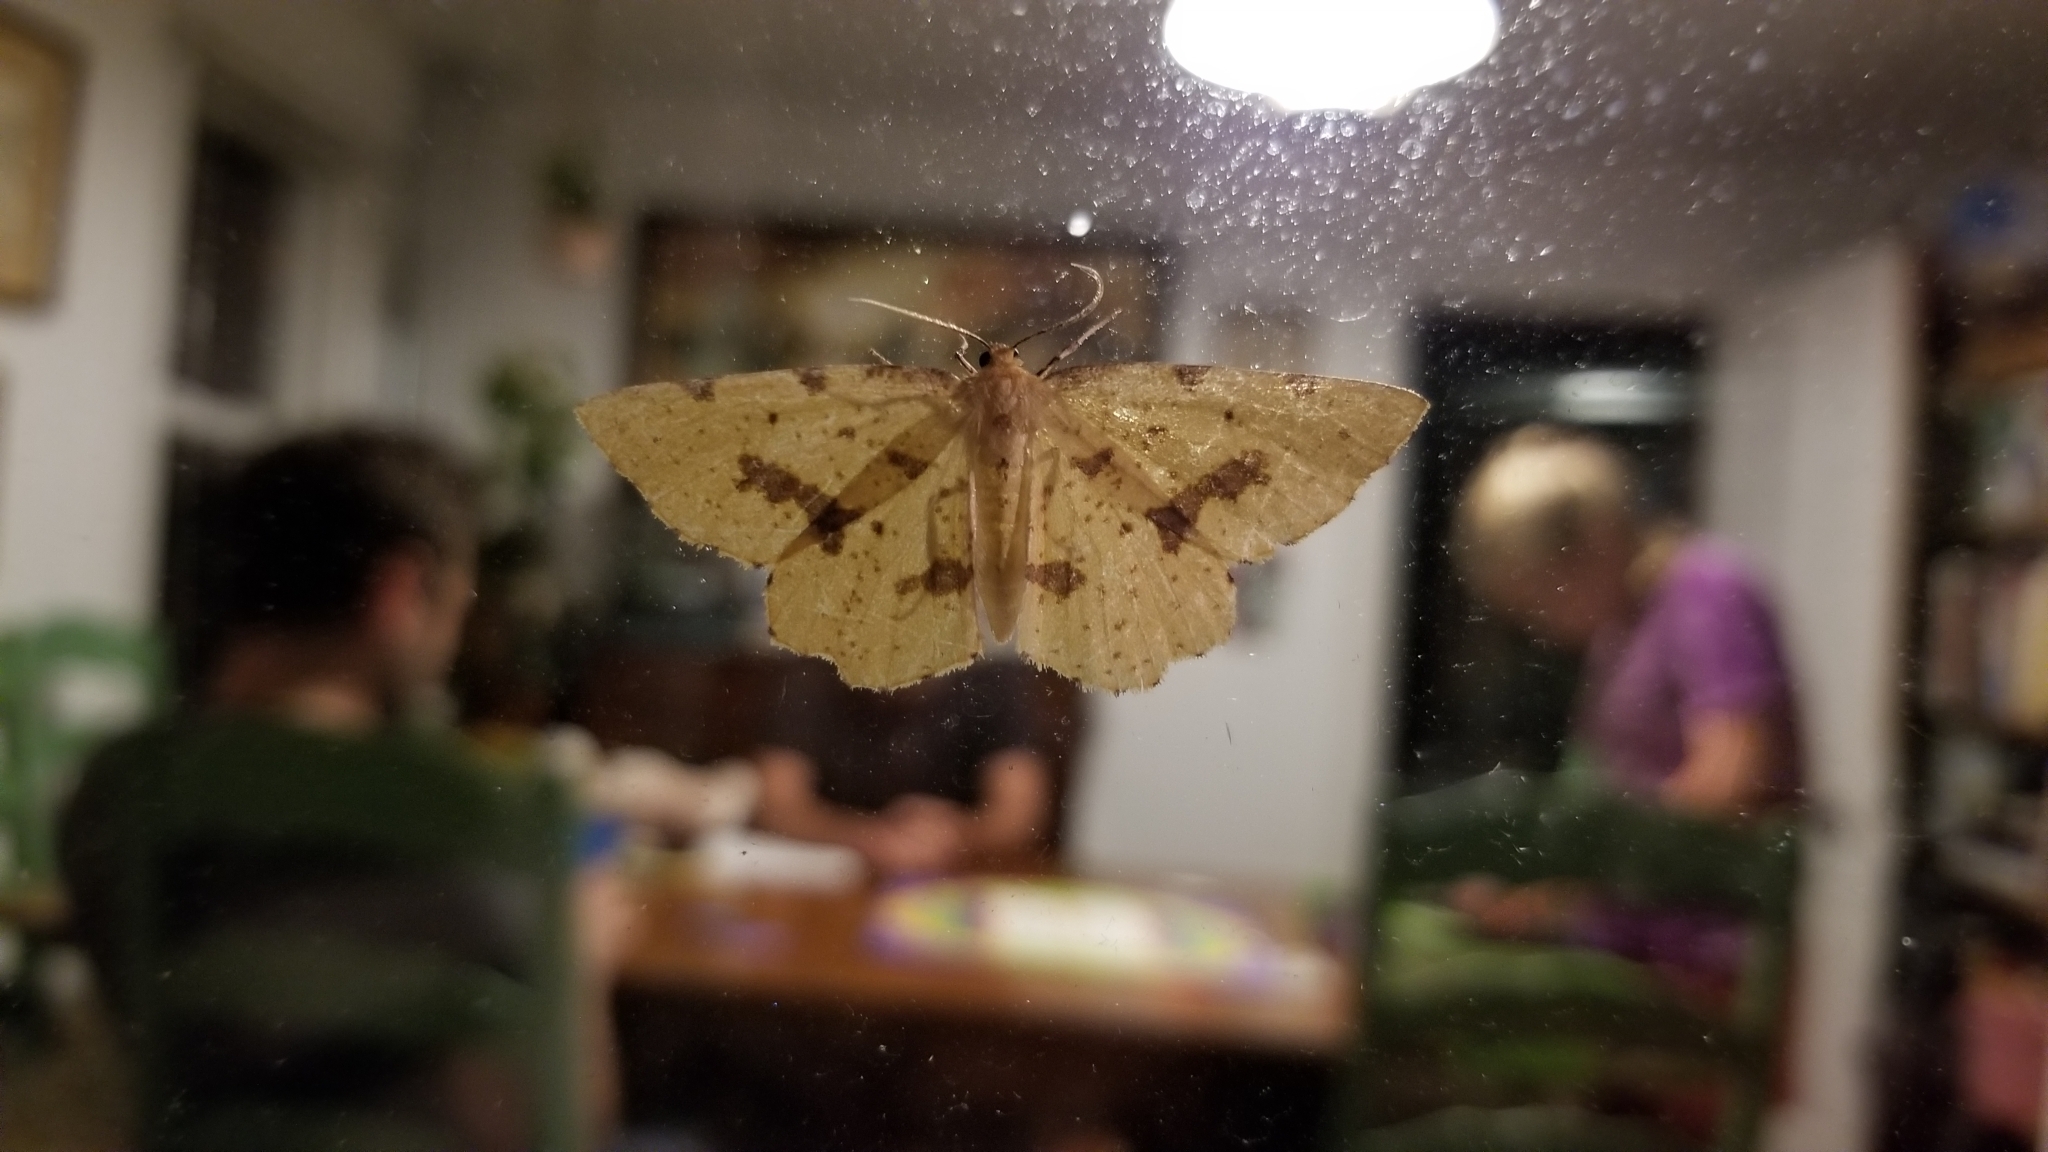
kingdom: Animalia
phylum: Arthropoda
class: Insecta
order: Lepidoptera
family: Geometridae
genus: Xanthotype
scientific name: Xanthotype
